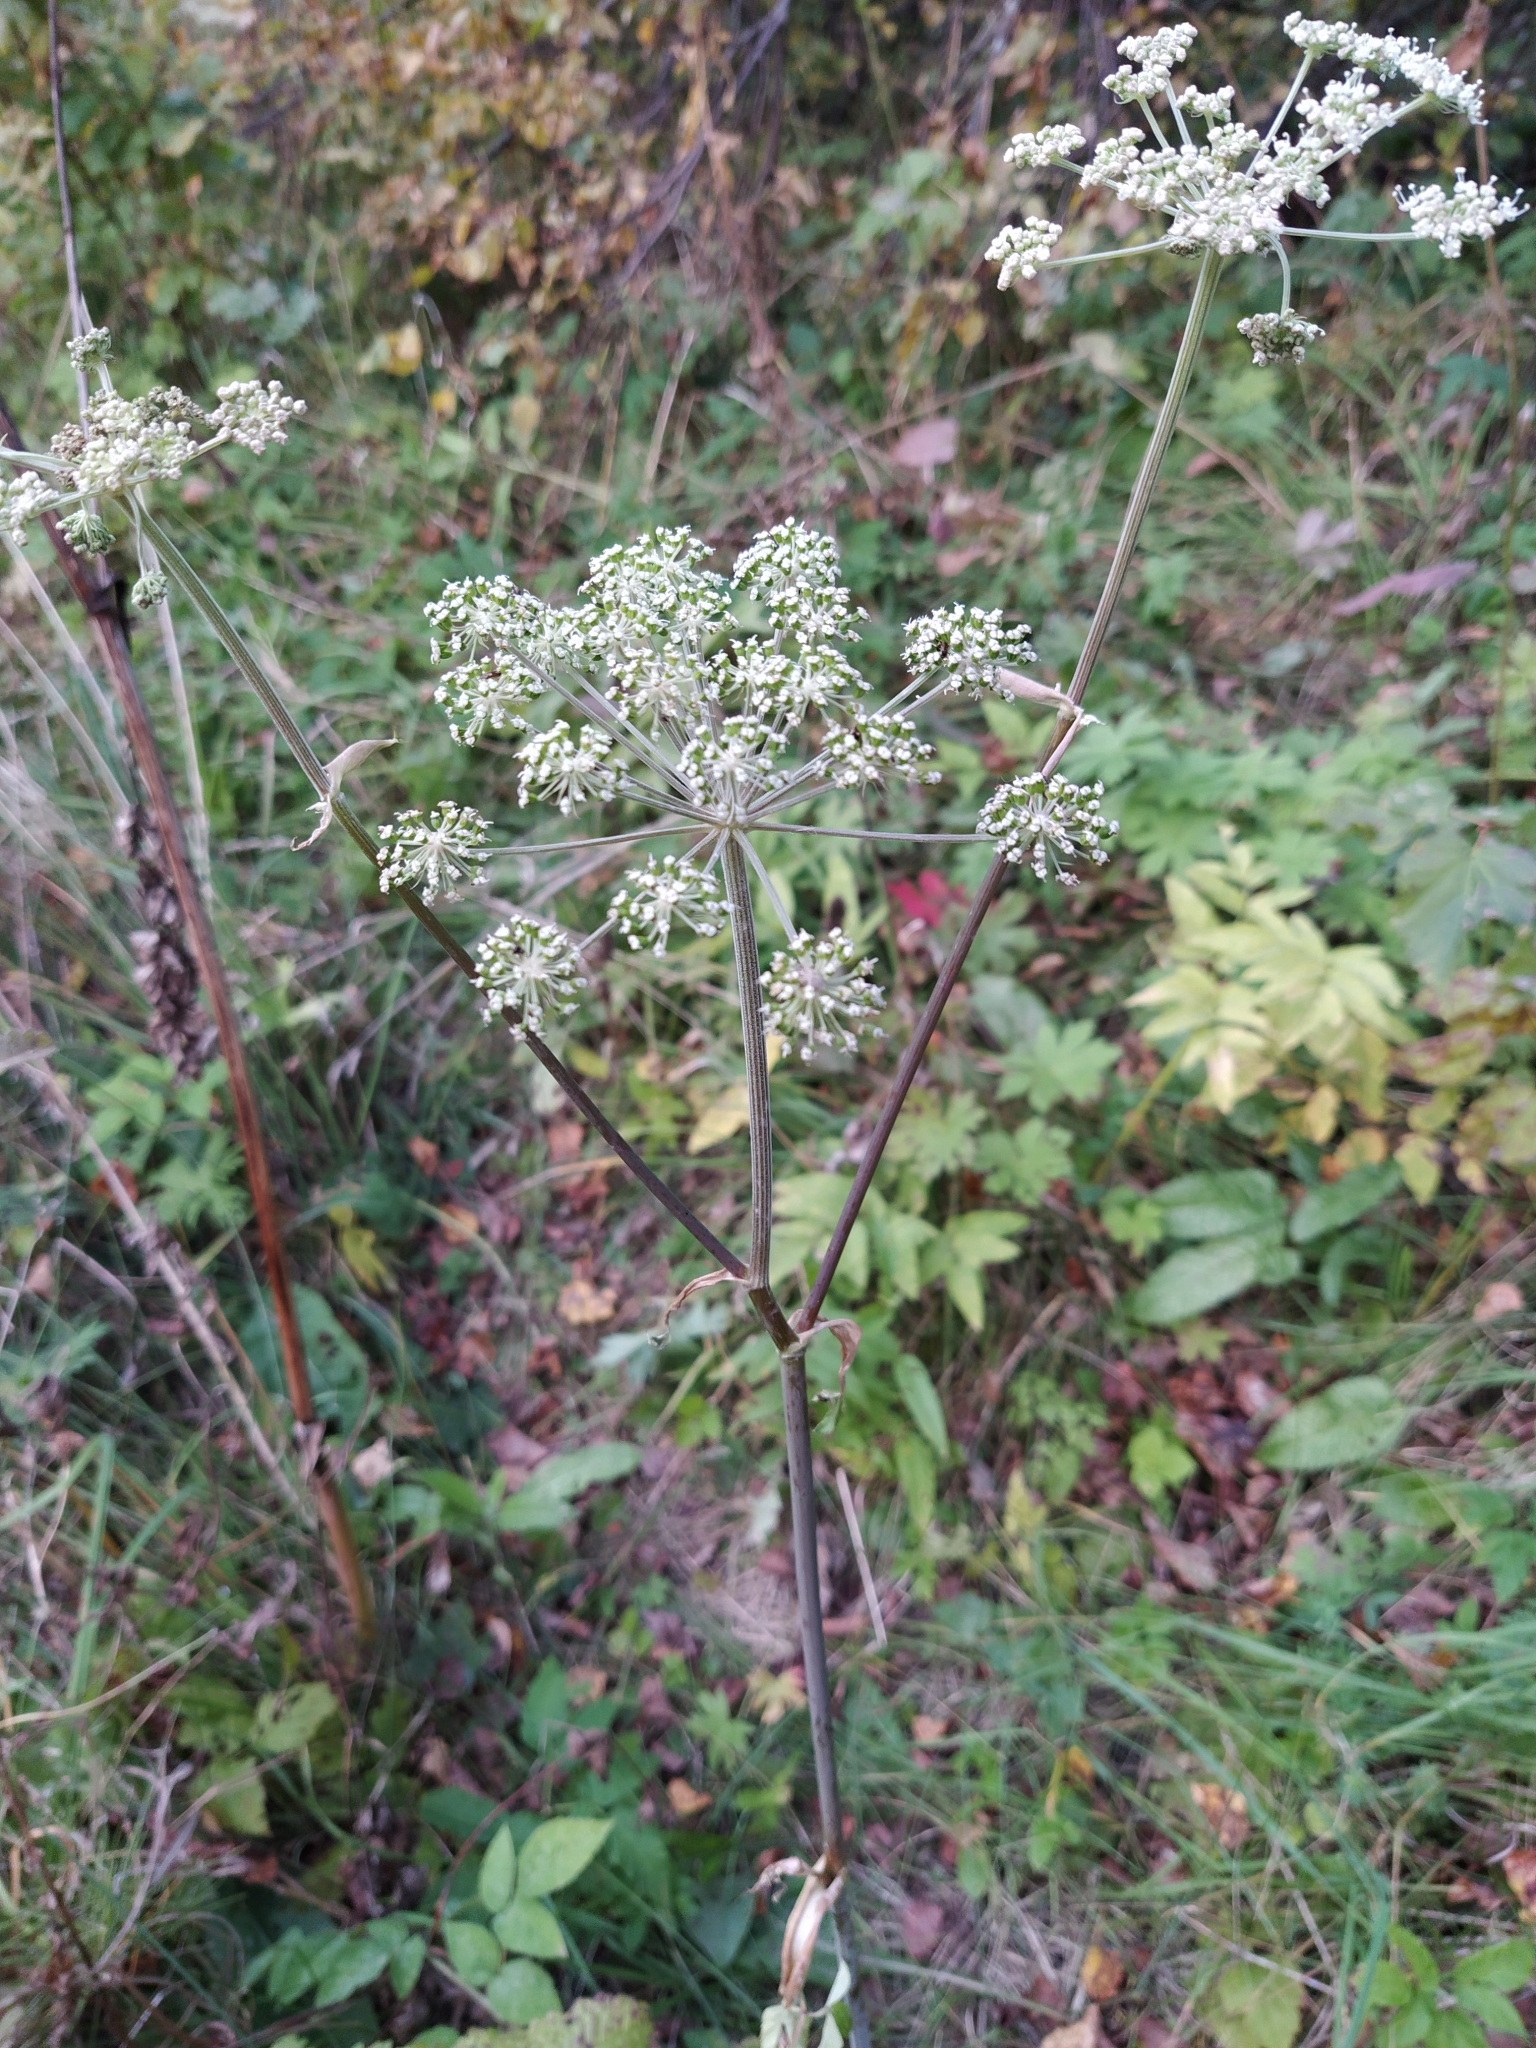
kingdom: Plantae
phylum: Tracheophyta
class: Magnoliopsida
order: Apiales
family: Apiaceae
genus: Angelica
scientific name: Angelica sylvestris
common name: Wild angelica
